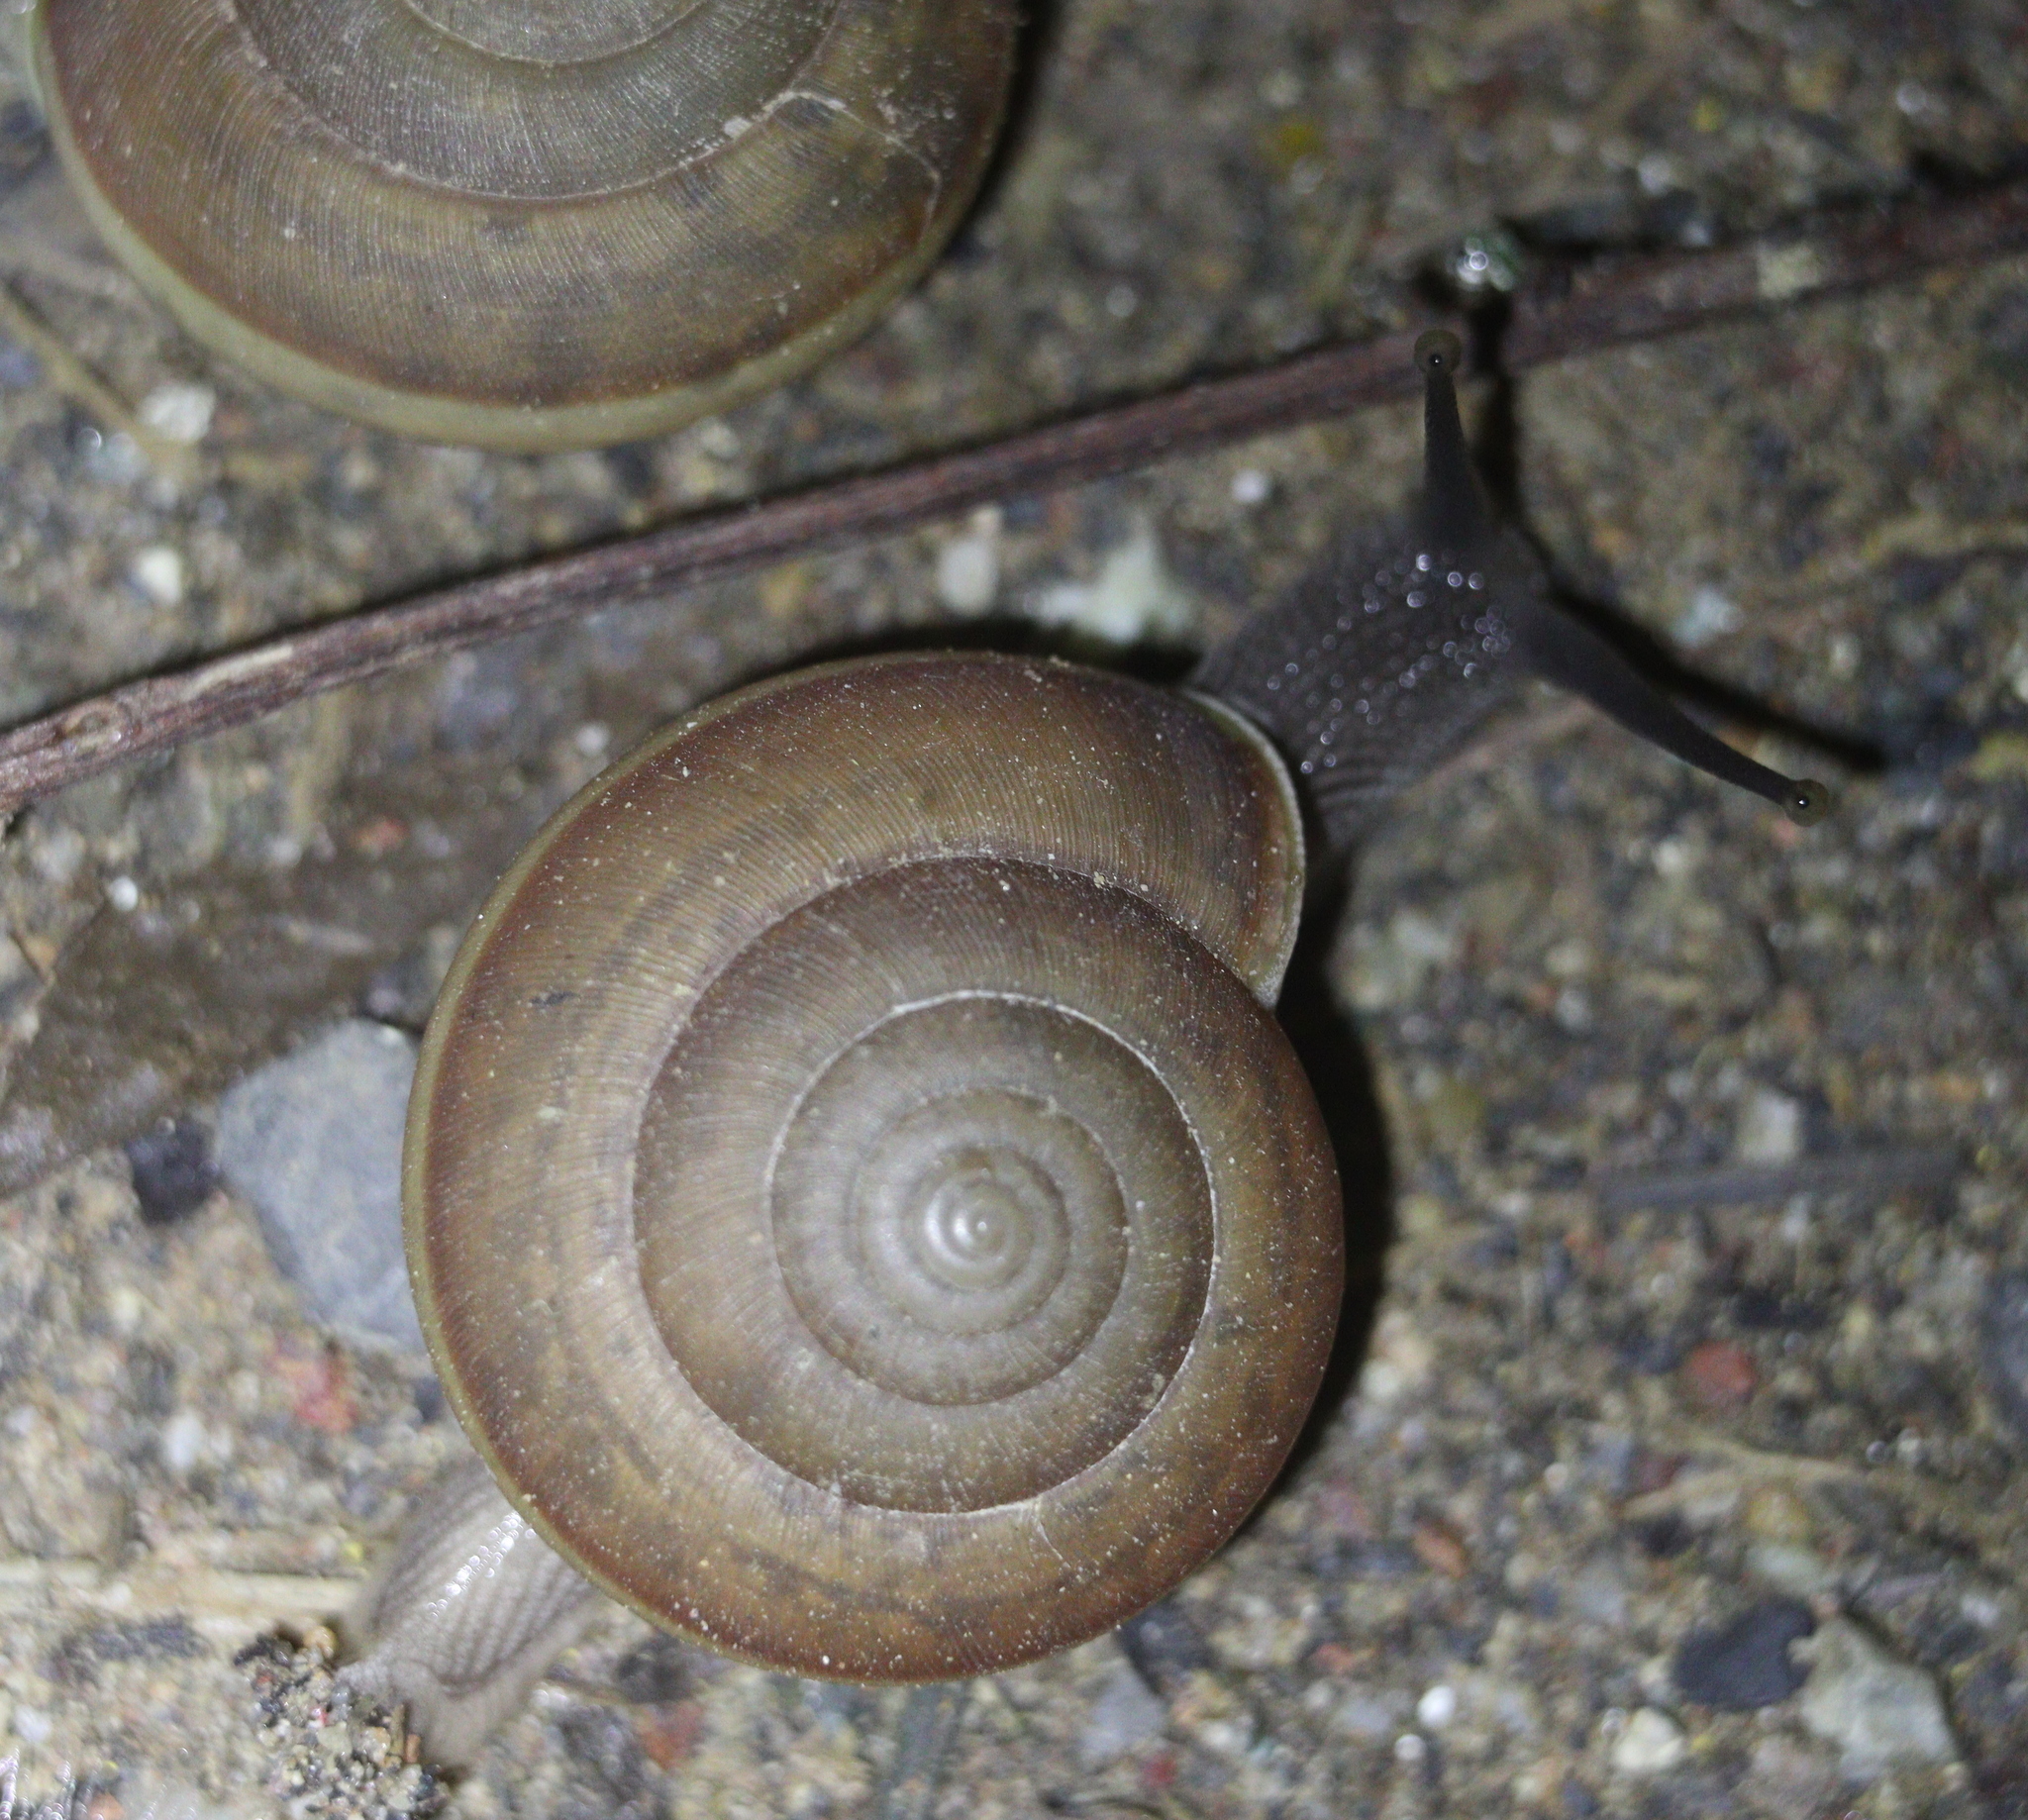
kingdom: Animalia
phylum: Mollusca
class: Gastropoda
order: Stylommatophora
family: Ariophantidae
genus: Sarika
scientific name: Sarika siamensis
